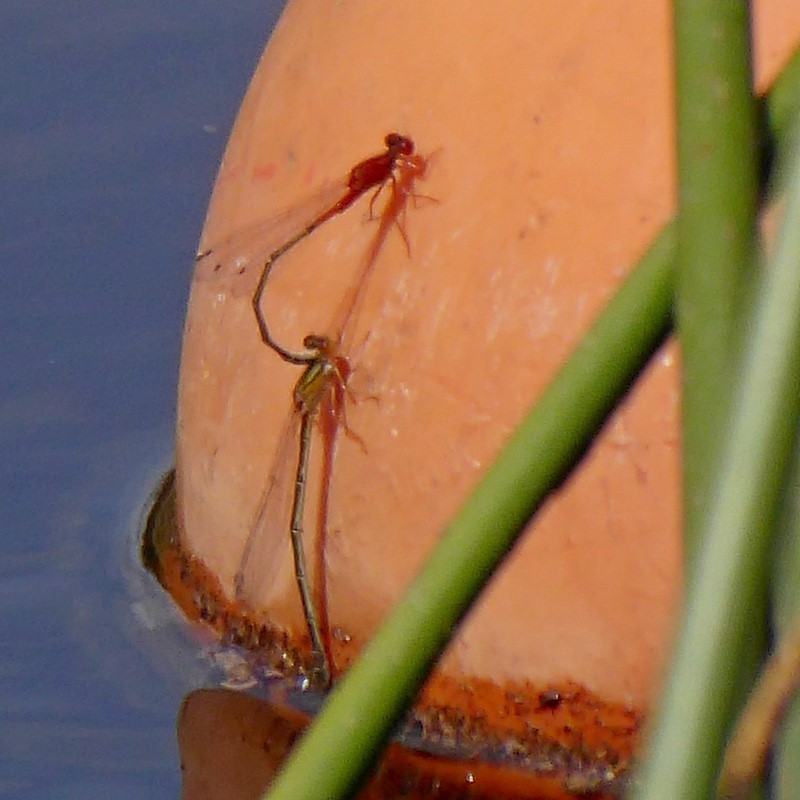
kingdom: Animalia
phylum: Arthropoda
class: Insecta
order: Odonata
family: Coenagrionidae
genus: Xanthagrion
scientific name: Xanthagrion erythroneurum
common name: Red and blue damsel
